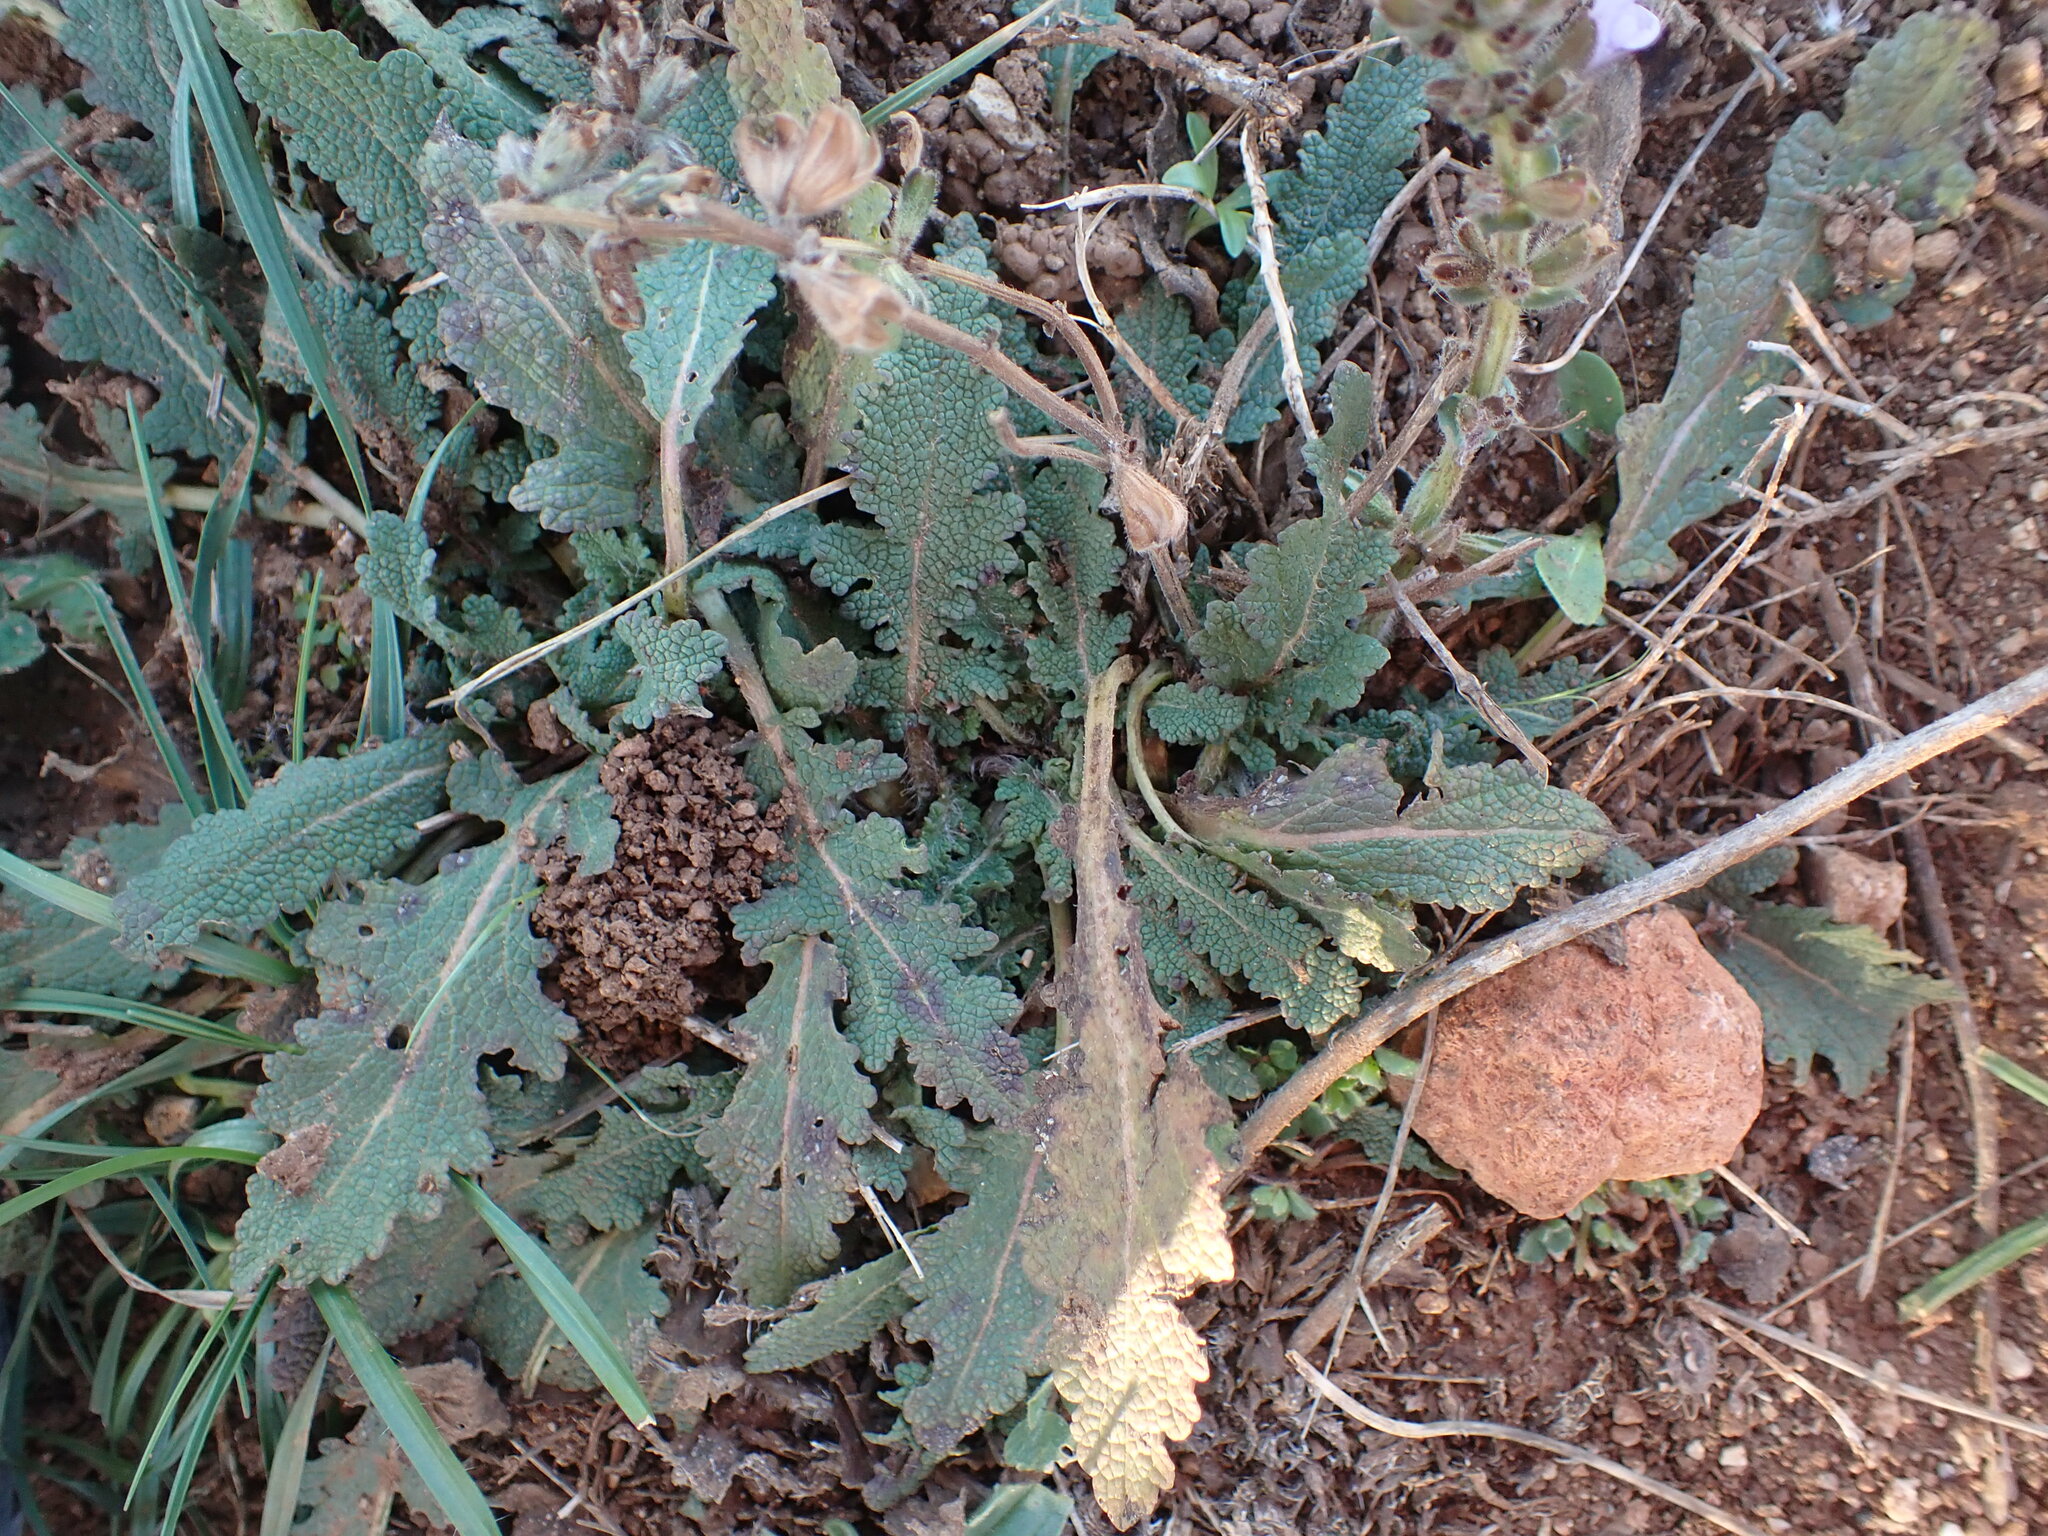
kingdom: Plantae
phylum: Tracheophyta
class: Magnoliopsida
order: Lamiales
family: Lamiaceae
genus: Salvia
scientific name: Salvia verbenaca
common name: Wild clary
